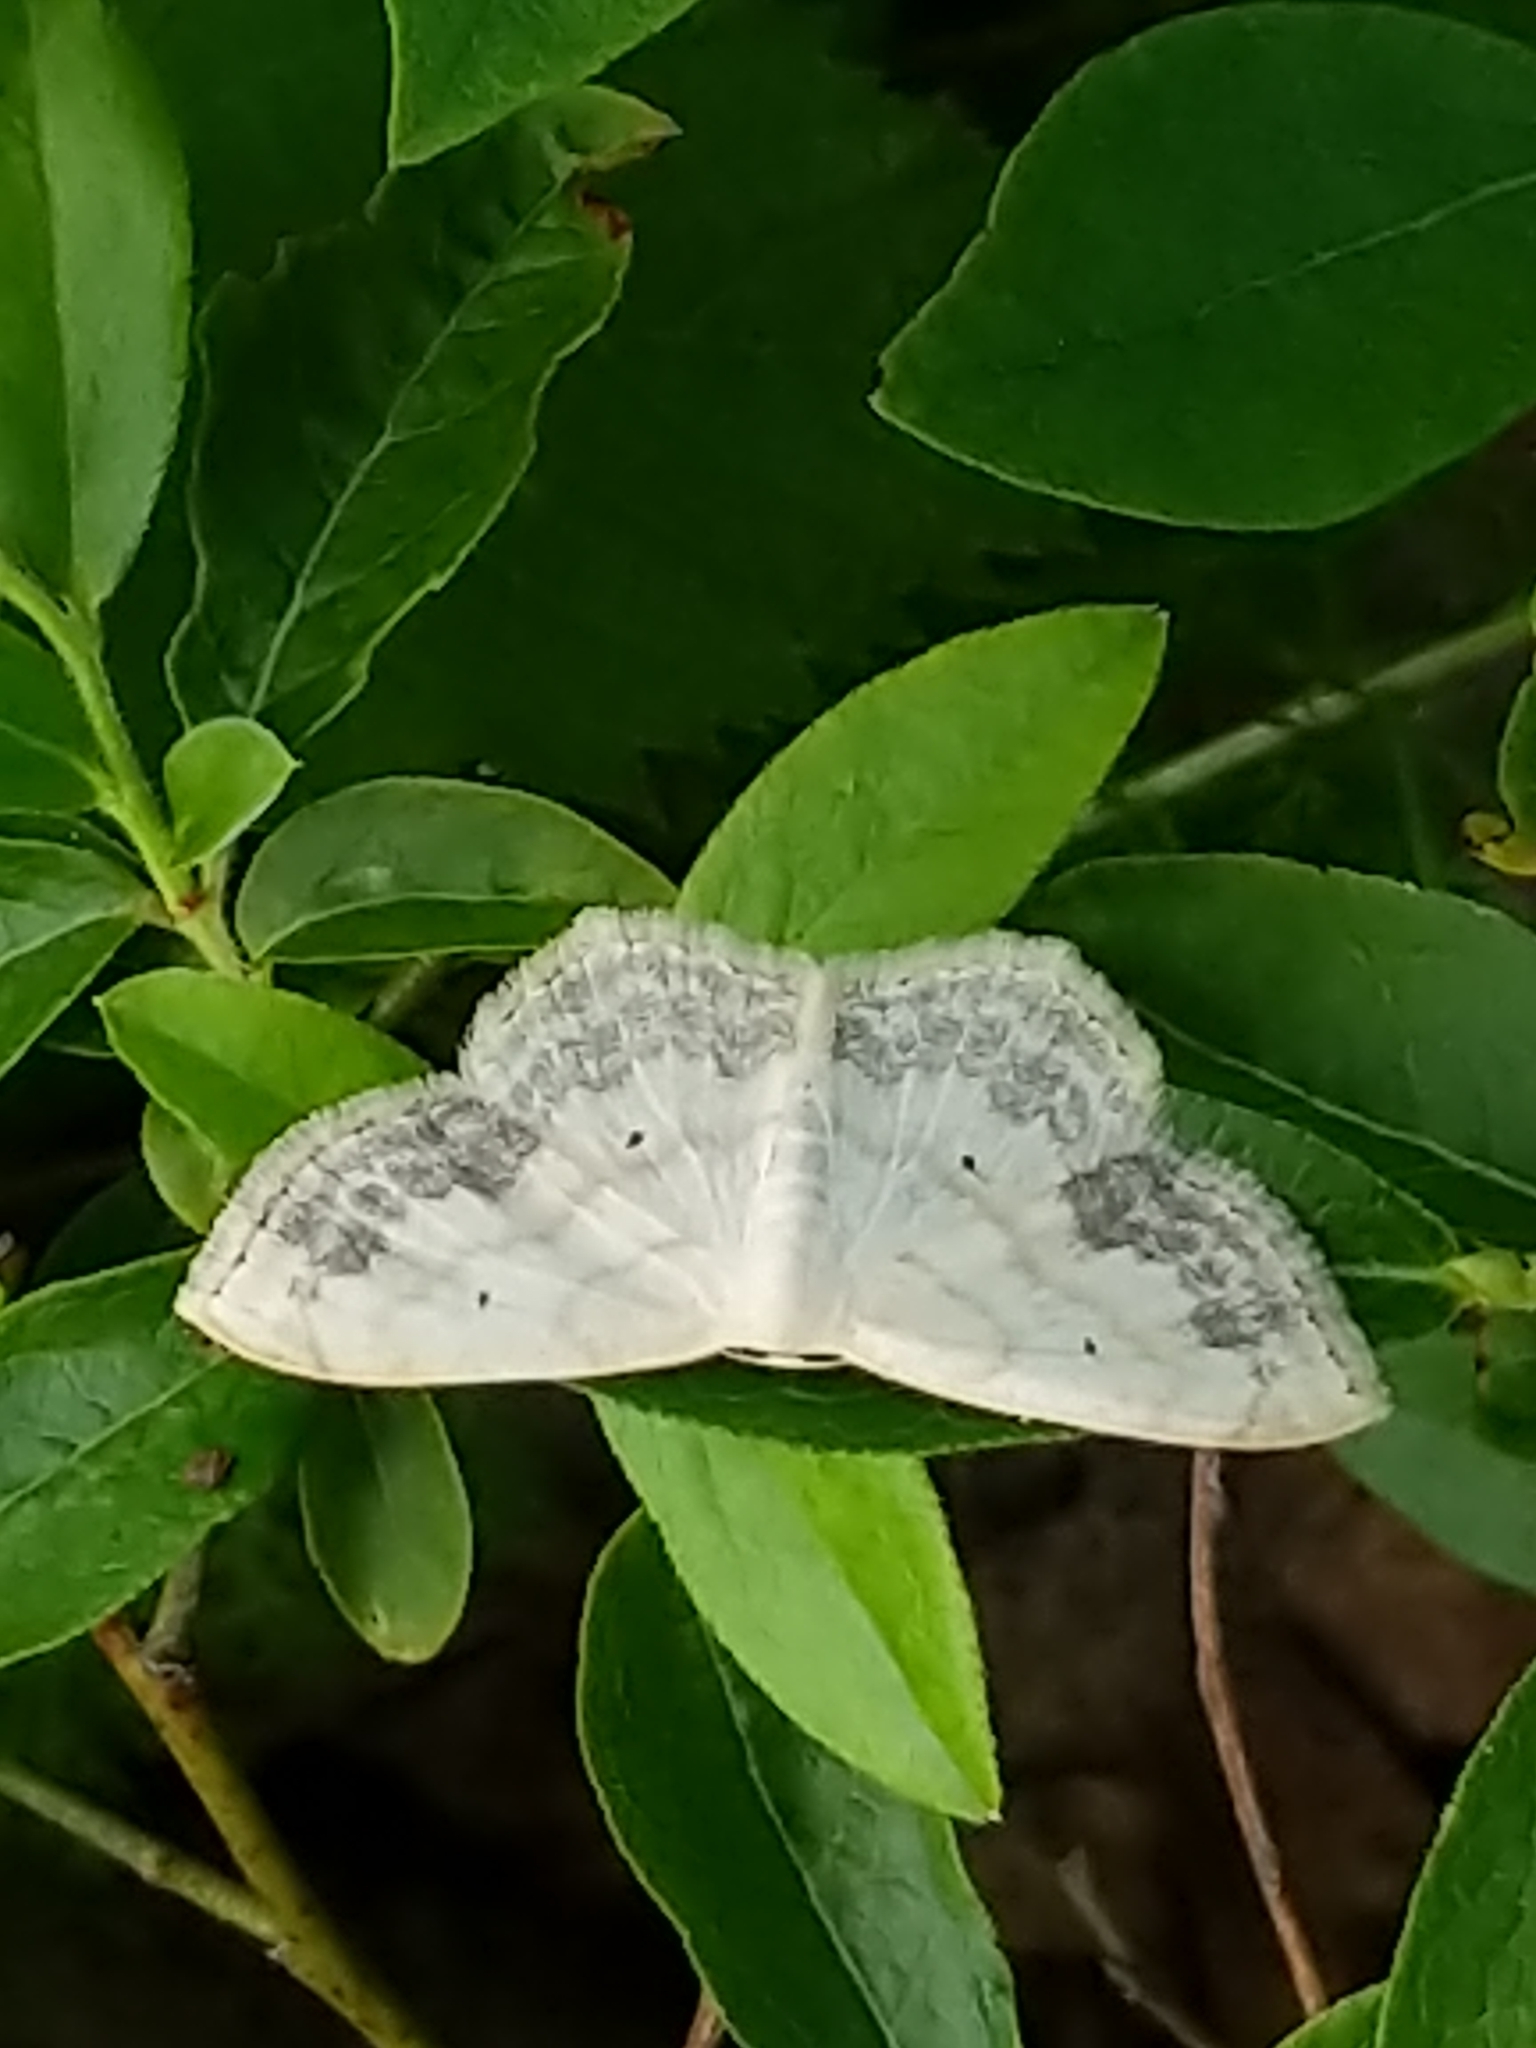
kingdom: Animalia
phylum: Arthropoda
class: Insecta
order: Lepidoptera
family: Geometridae
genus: Scopula
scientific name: Scopula limboundata
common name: Large lace border
